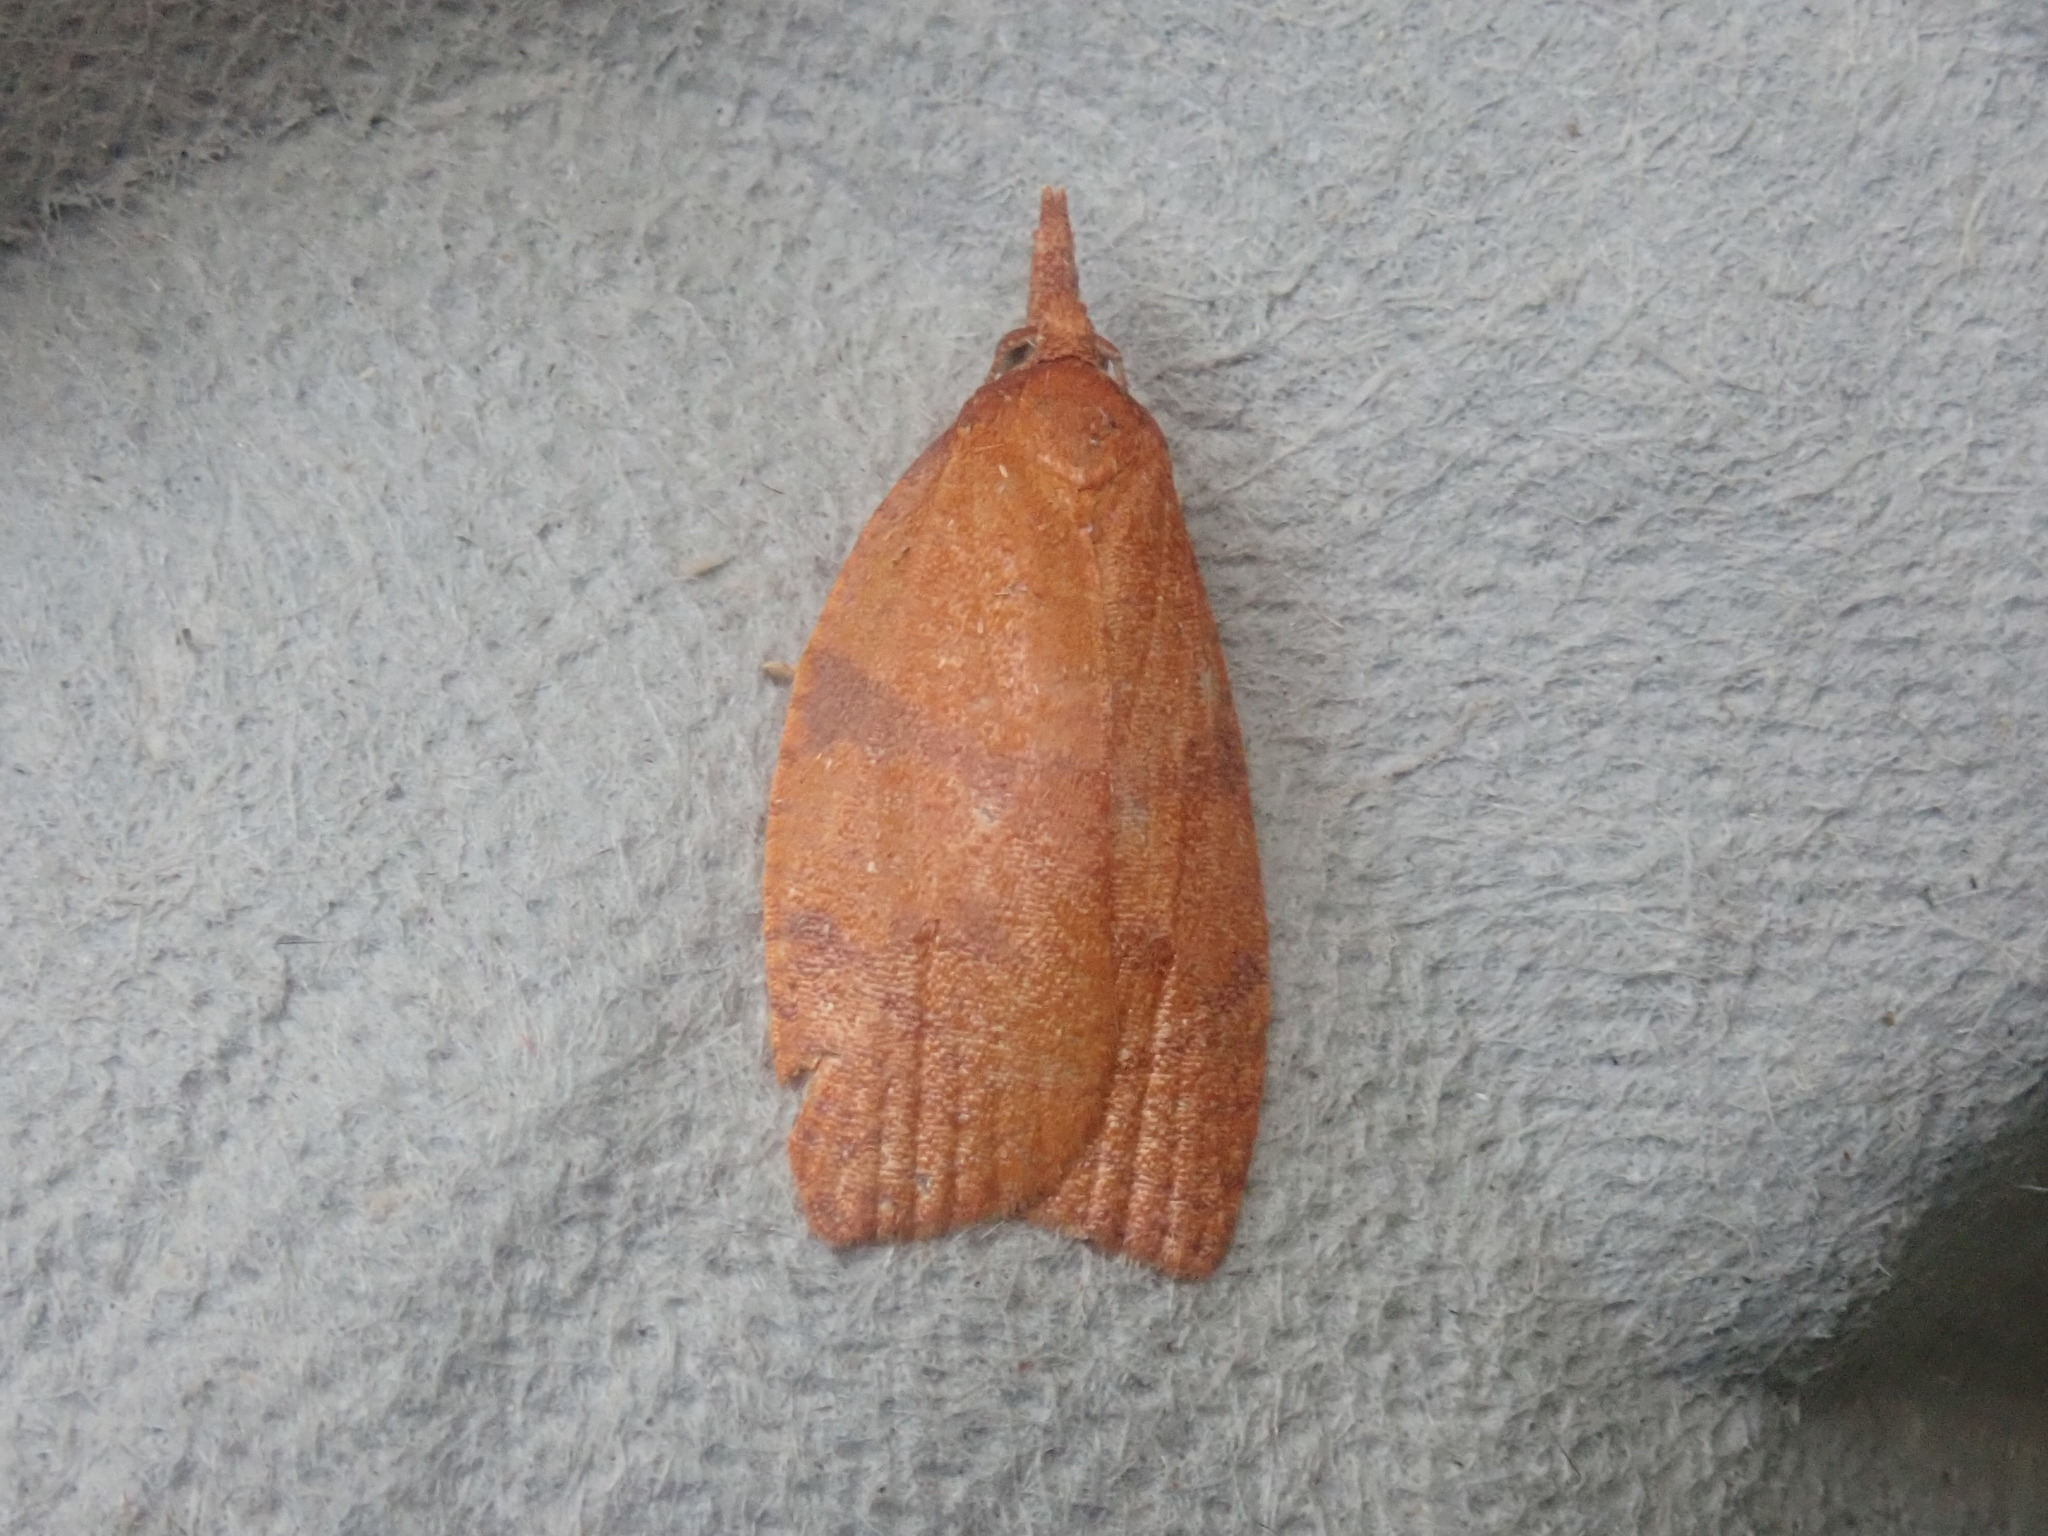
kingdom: Animalia
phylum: Arthropoda
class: Insecta
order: Lepidoptera
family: Tortricidae
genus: Cenopis
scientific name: Cenopis directana
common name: Chokecherry leafroller moth
